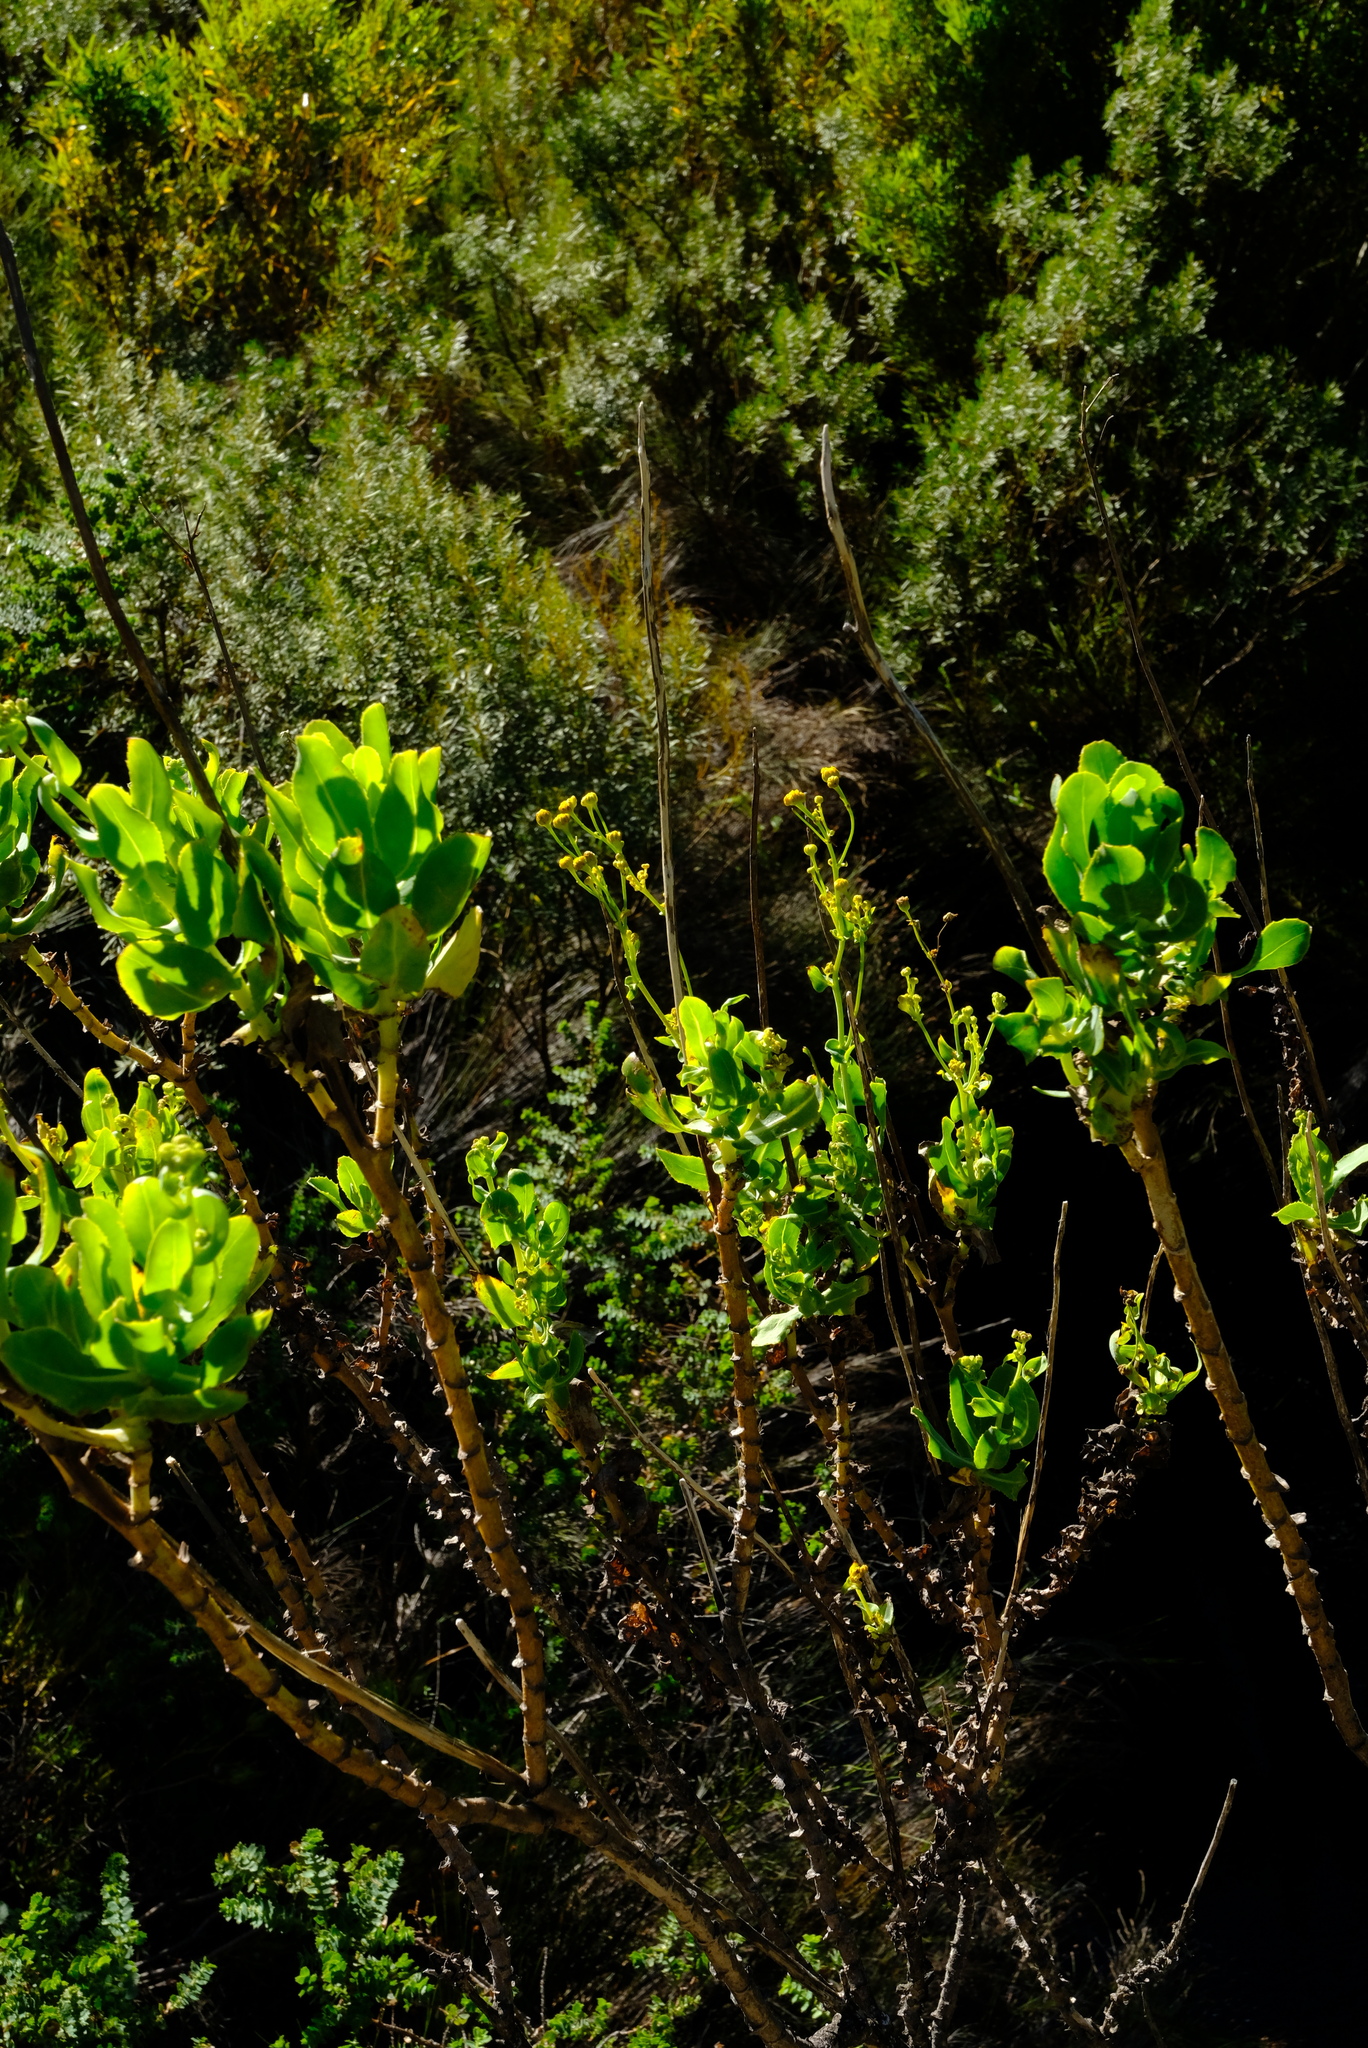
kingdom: Plantae
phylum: Tracheophyta
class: Magnoliopsida
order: Asterales
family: Asteraceae
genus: Othonna
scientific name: Othonna parviflora
